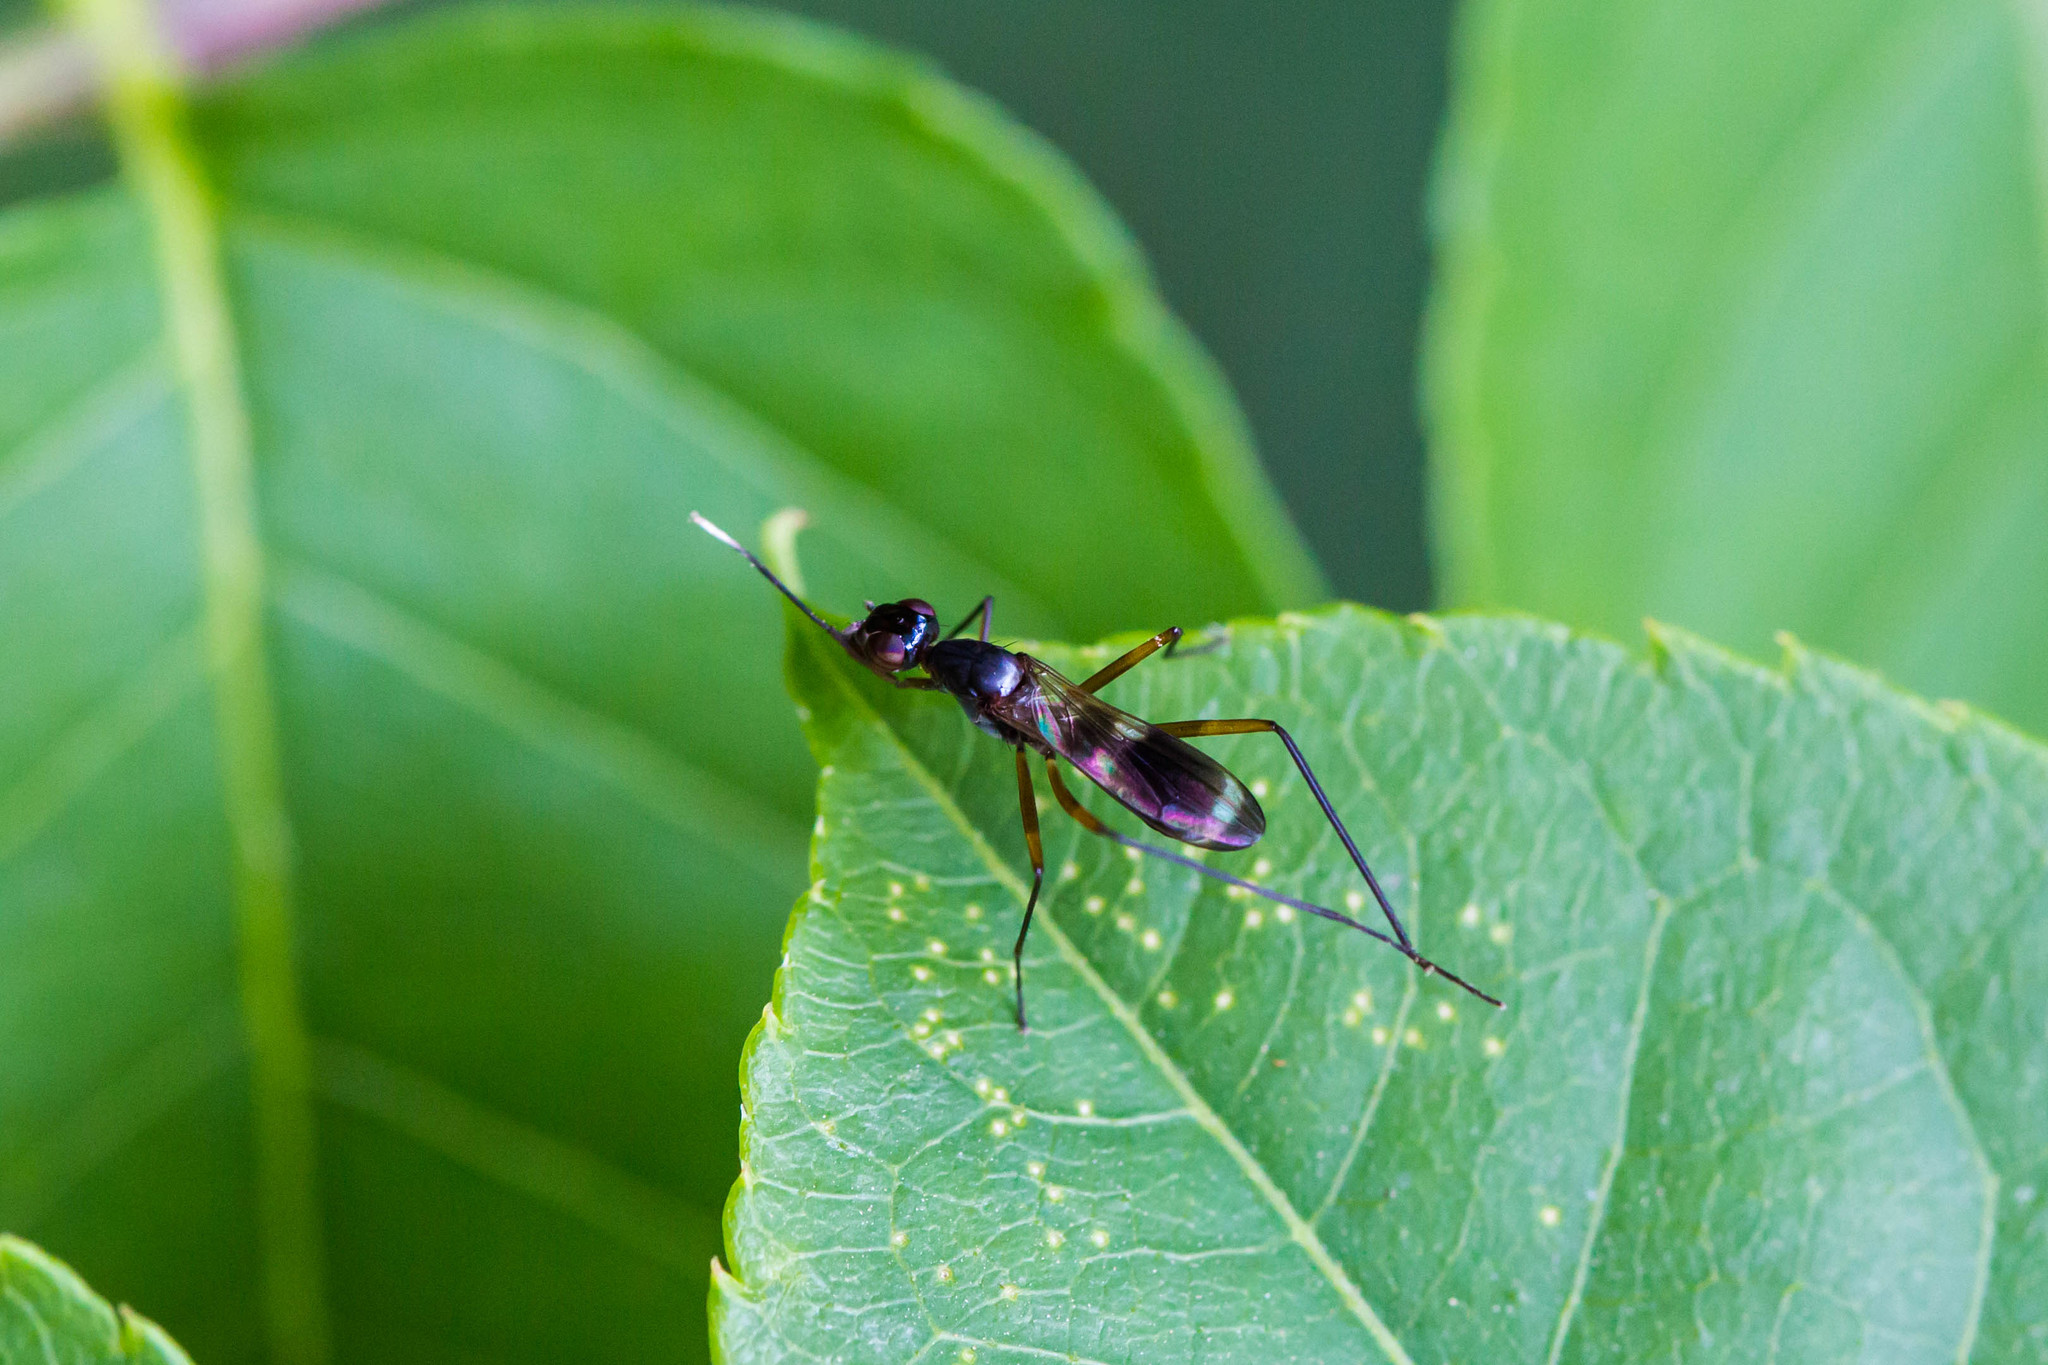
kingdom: Animalia
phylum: Arthropoda
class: Insecta
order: Diptera
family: Micropezidae
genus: Taeniaptera
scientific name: Taeniaptera trivittata
